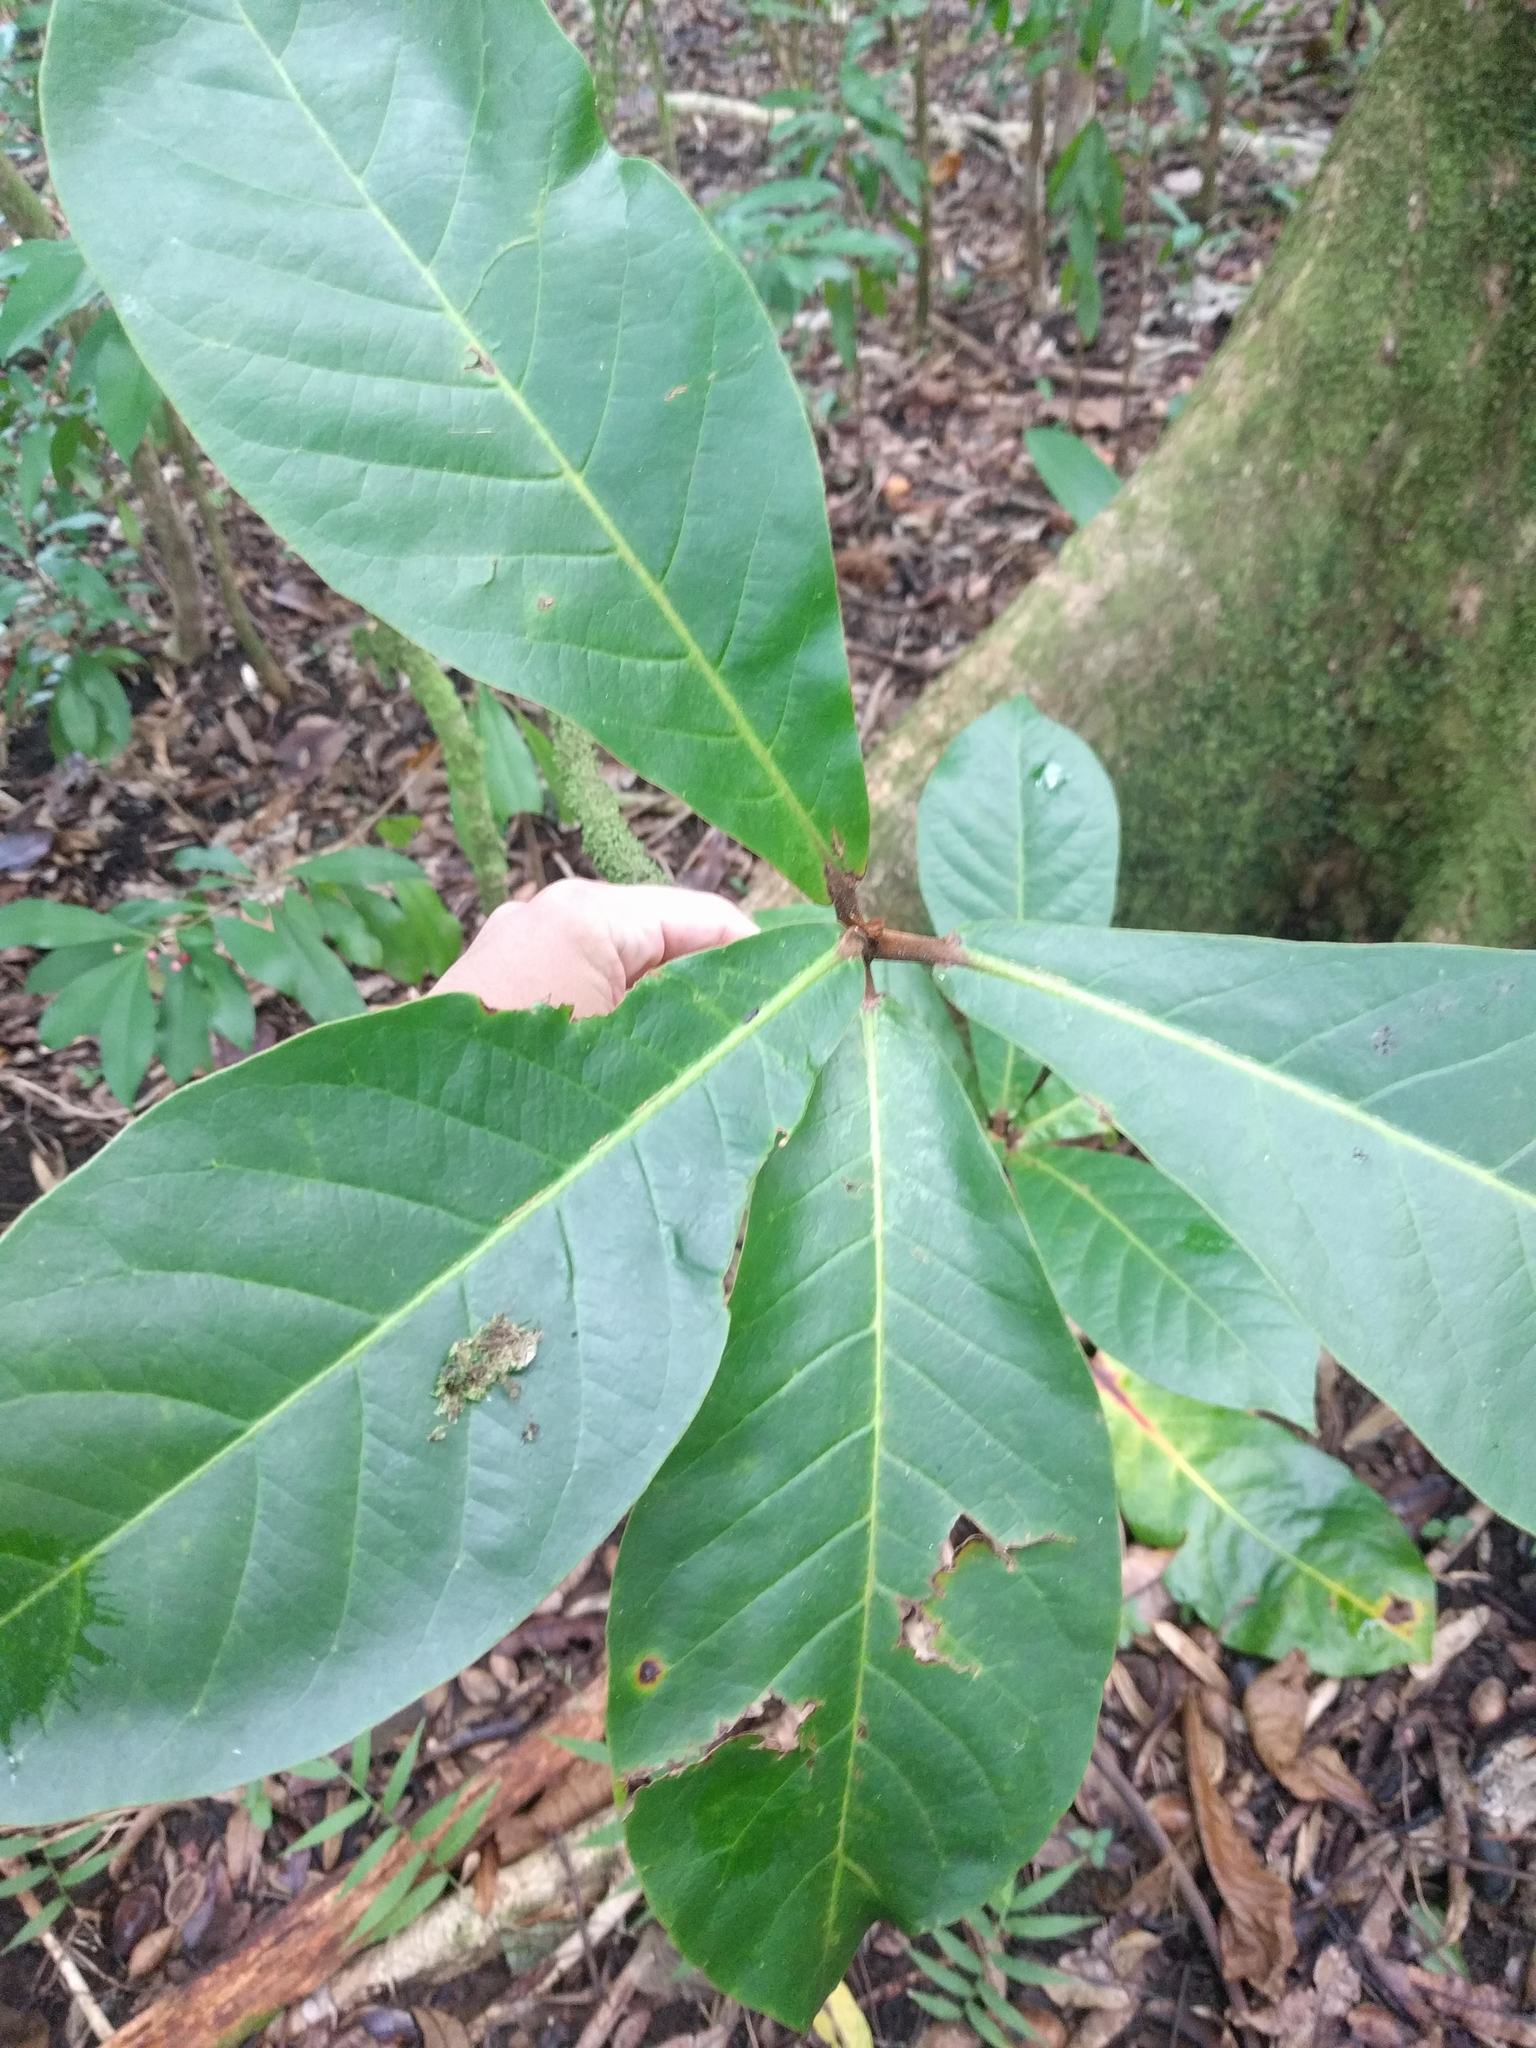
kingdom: Plantae
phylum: Tracheophyta
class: Magnoliopsida
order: Myrtales
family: Combretaceae
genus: Terminalia
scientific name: Terminalia catappa
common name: Tropical almond
